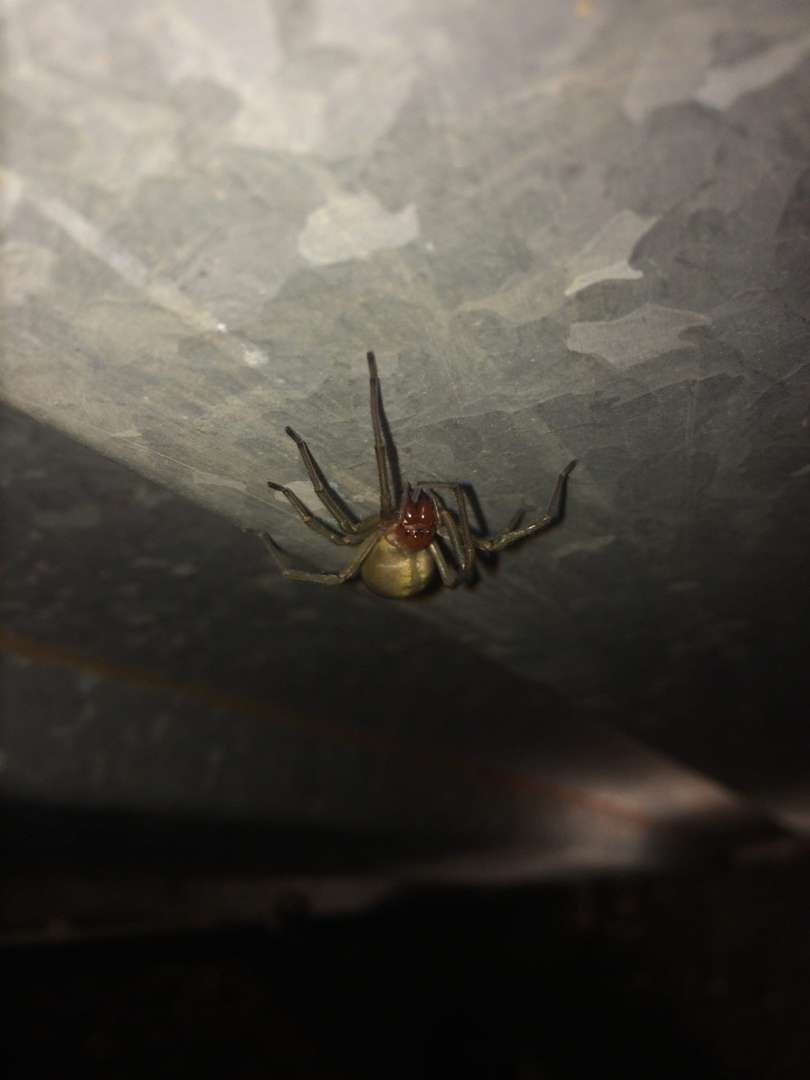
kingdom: Animalia
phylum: Arthropoda
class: Arachnida
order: Araneae
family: Cheiracanthiidae
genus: Cheiracanthium
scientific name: Cheiracanthium
